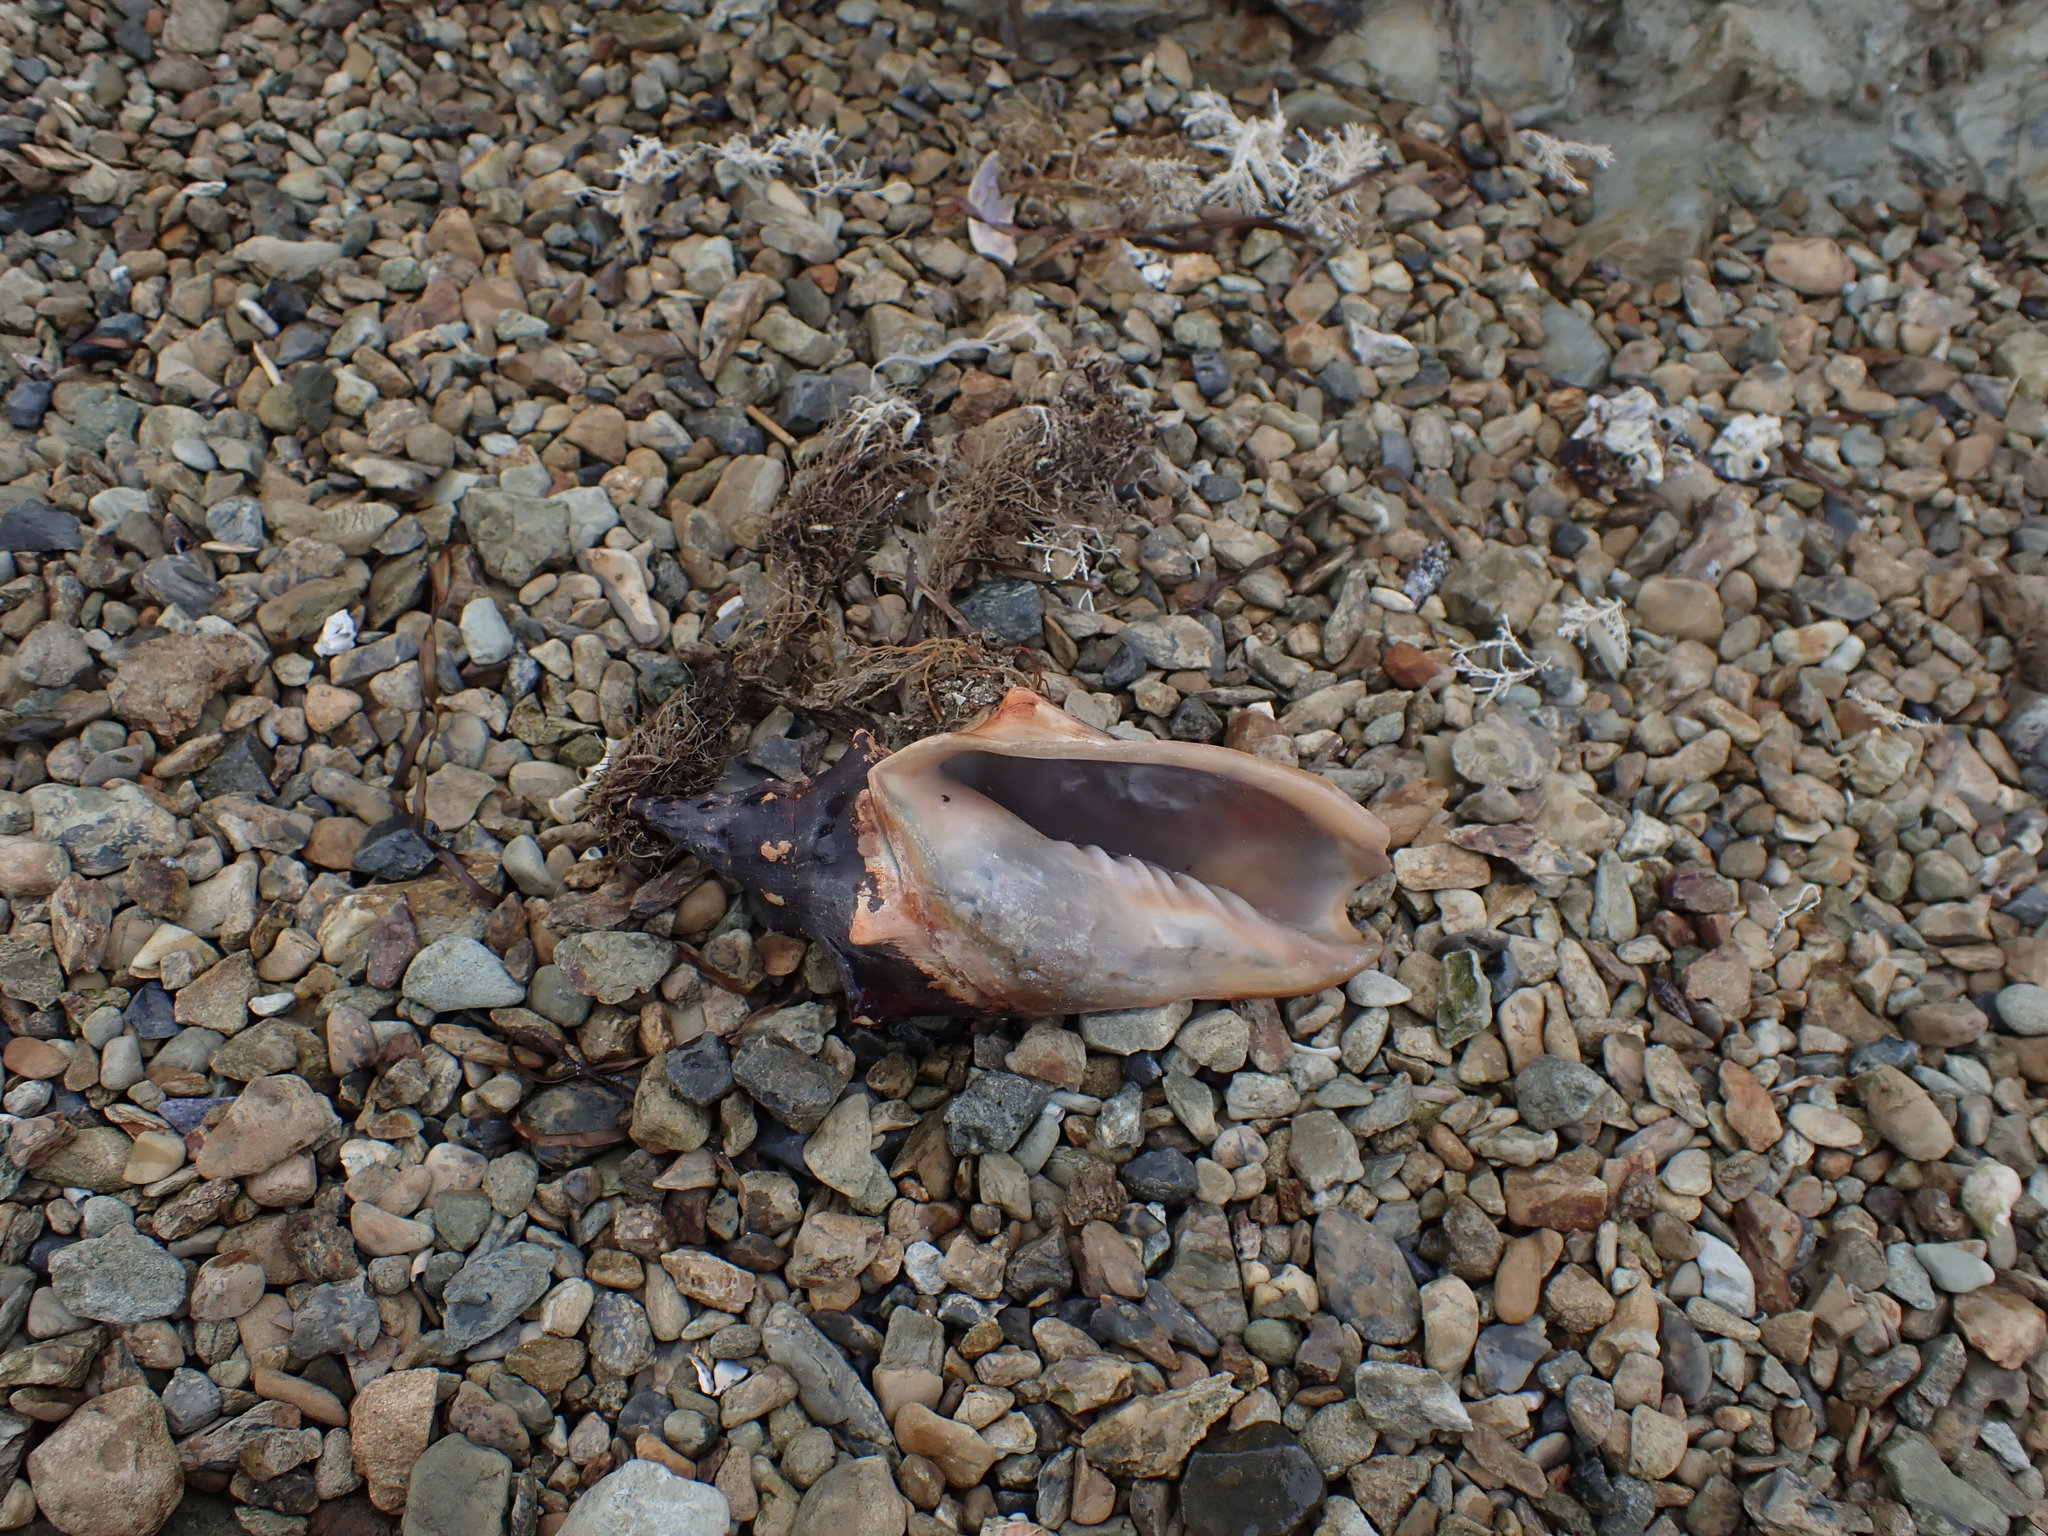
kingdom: Animalia
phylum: Mollusca
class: Gastropoda
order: Neogastropoda
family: Volutidae
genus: Alcithoe
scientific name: Alcithoe arabica
